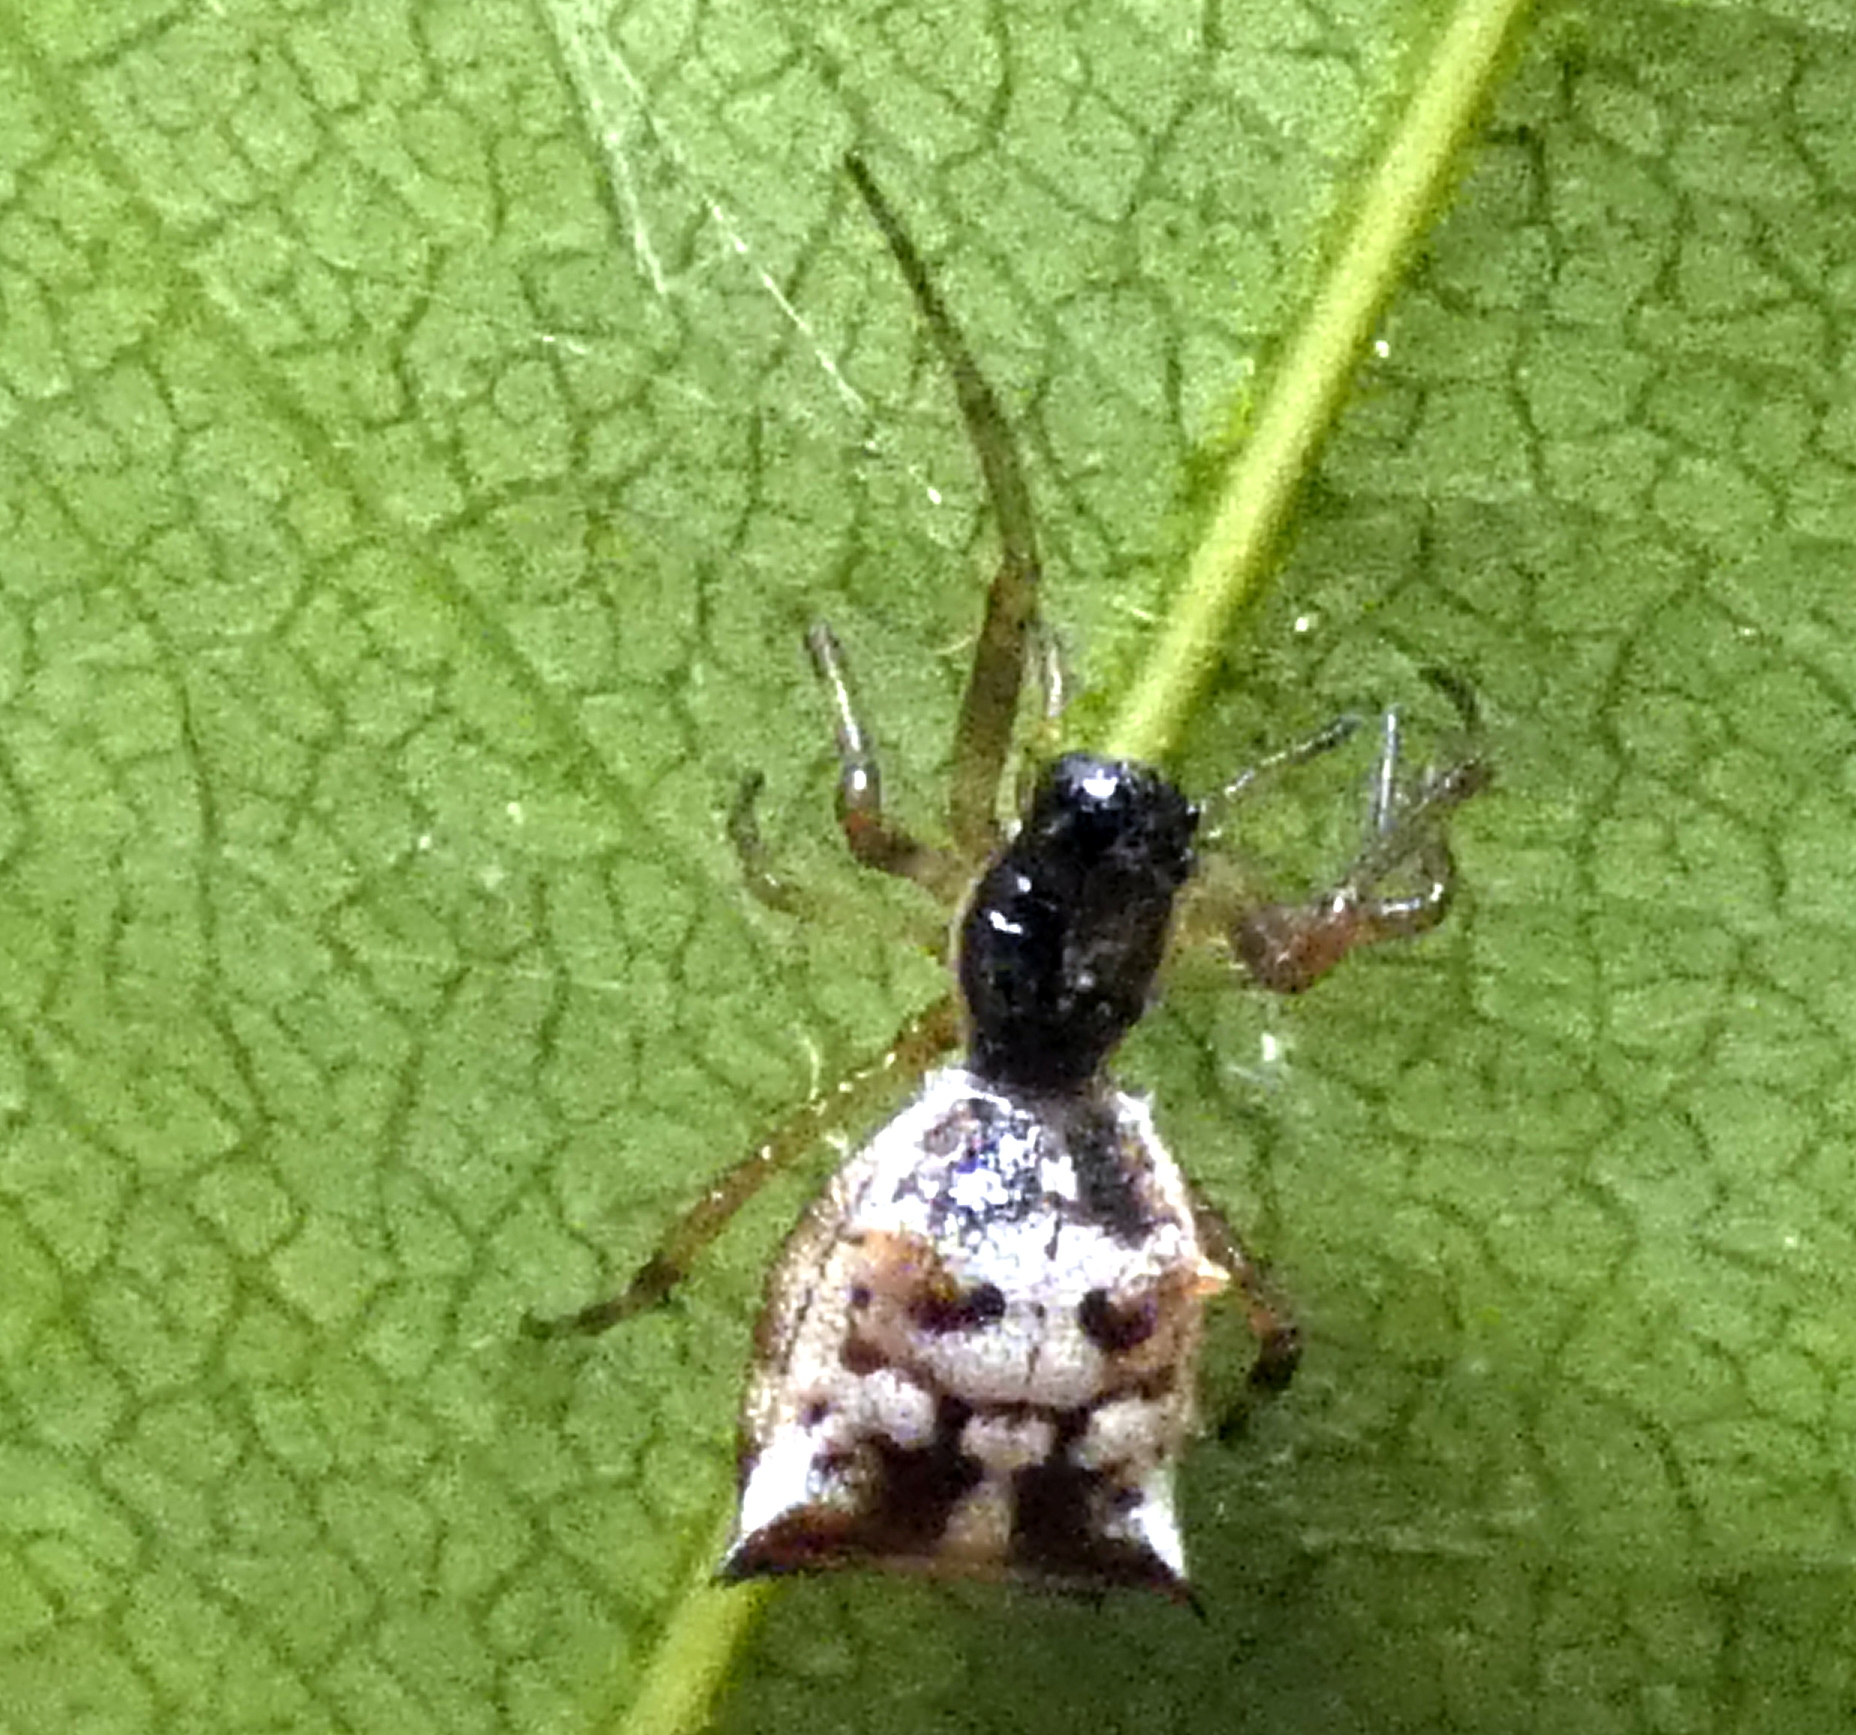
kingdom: Animalia
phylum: Arthropoda
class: Arachnida
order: Araneae
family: Araneidae
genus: Micrathena
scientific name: Micrathena picta
